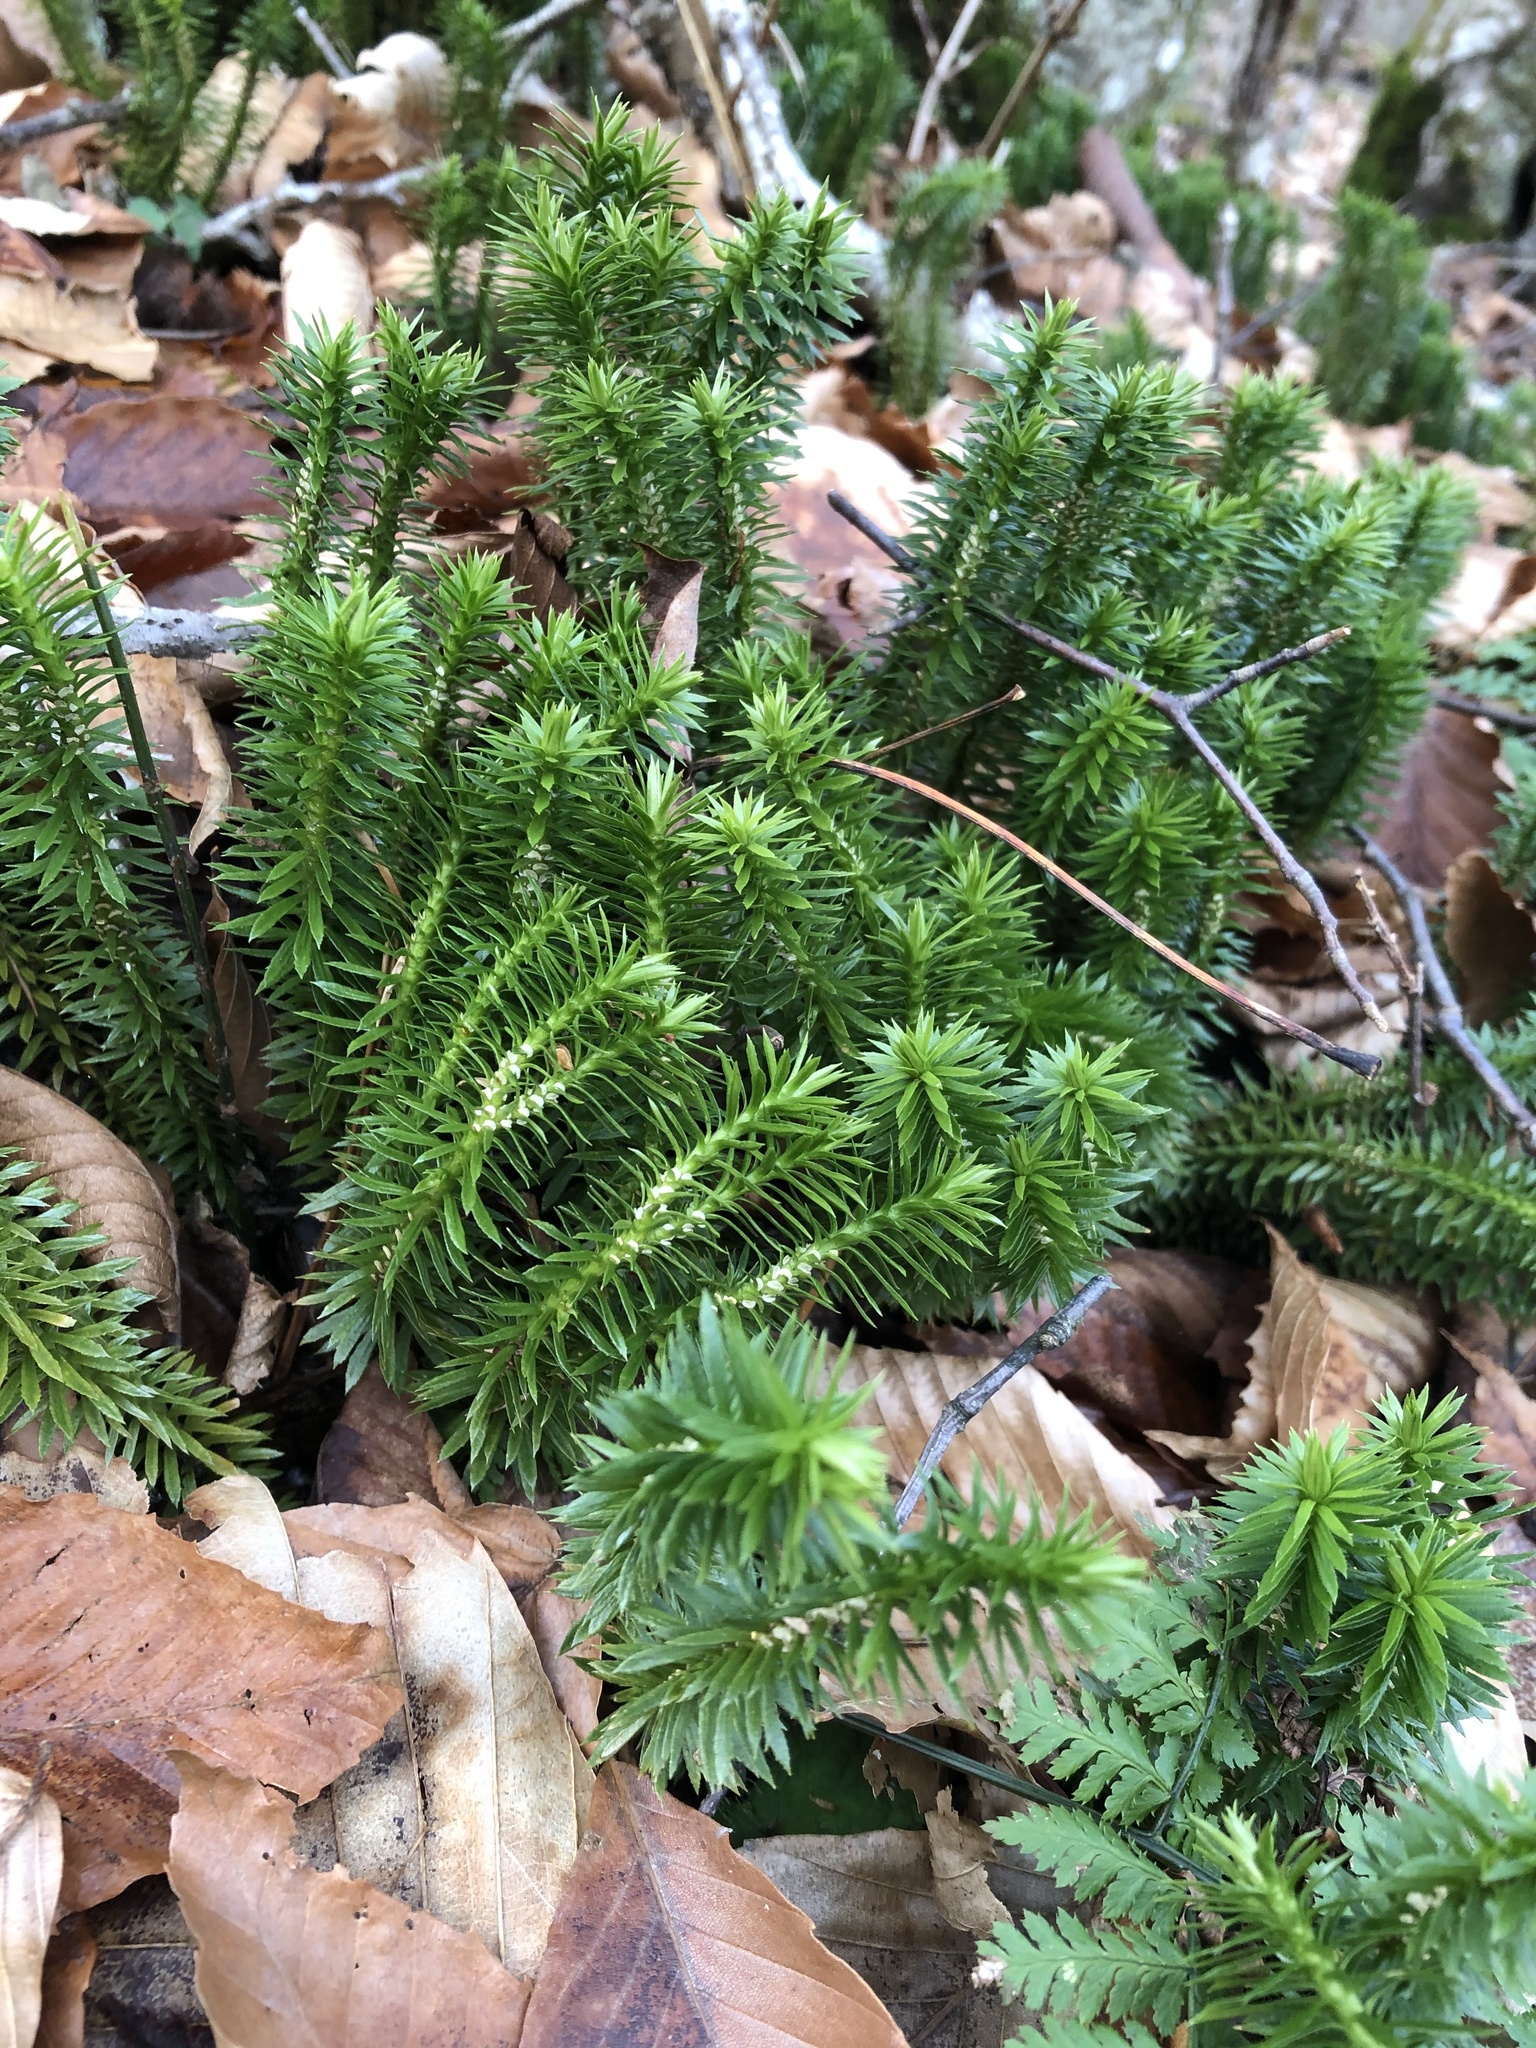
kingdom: Plantae
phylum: Tracheophyta
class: Lycopodiopsida
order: Lycopodiales
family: Lycopodiaceae
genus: Huperzia
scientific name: Huperzia lucidula
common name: Shining clubmoss
